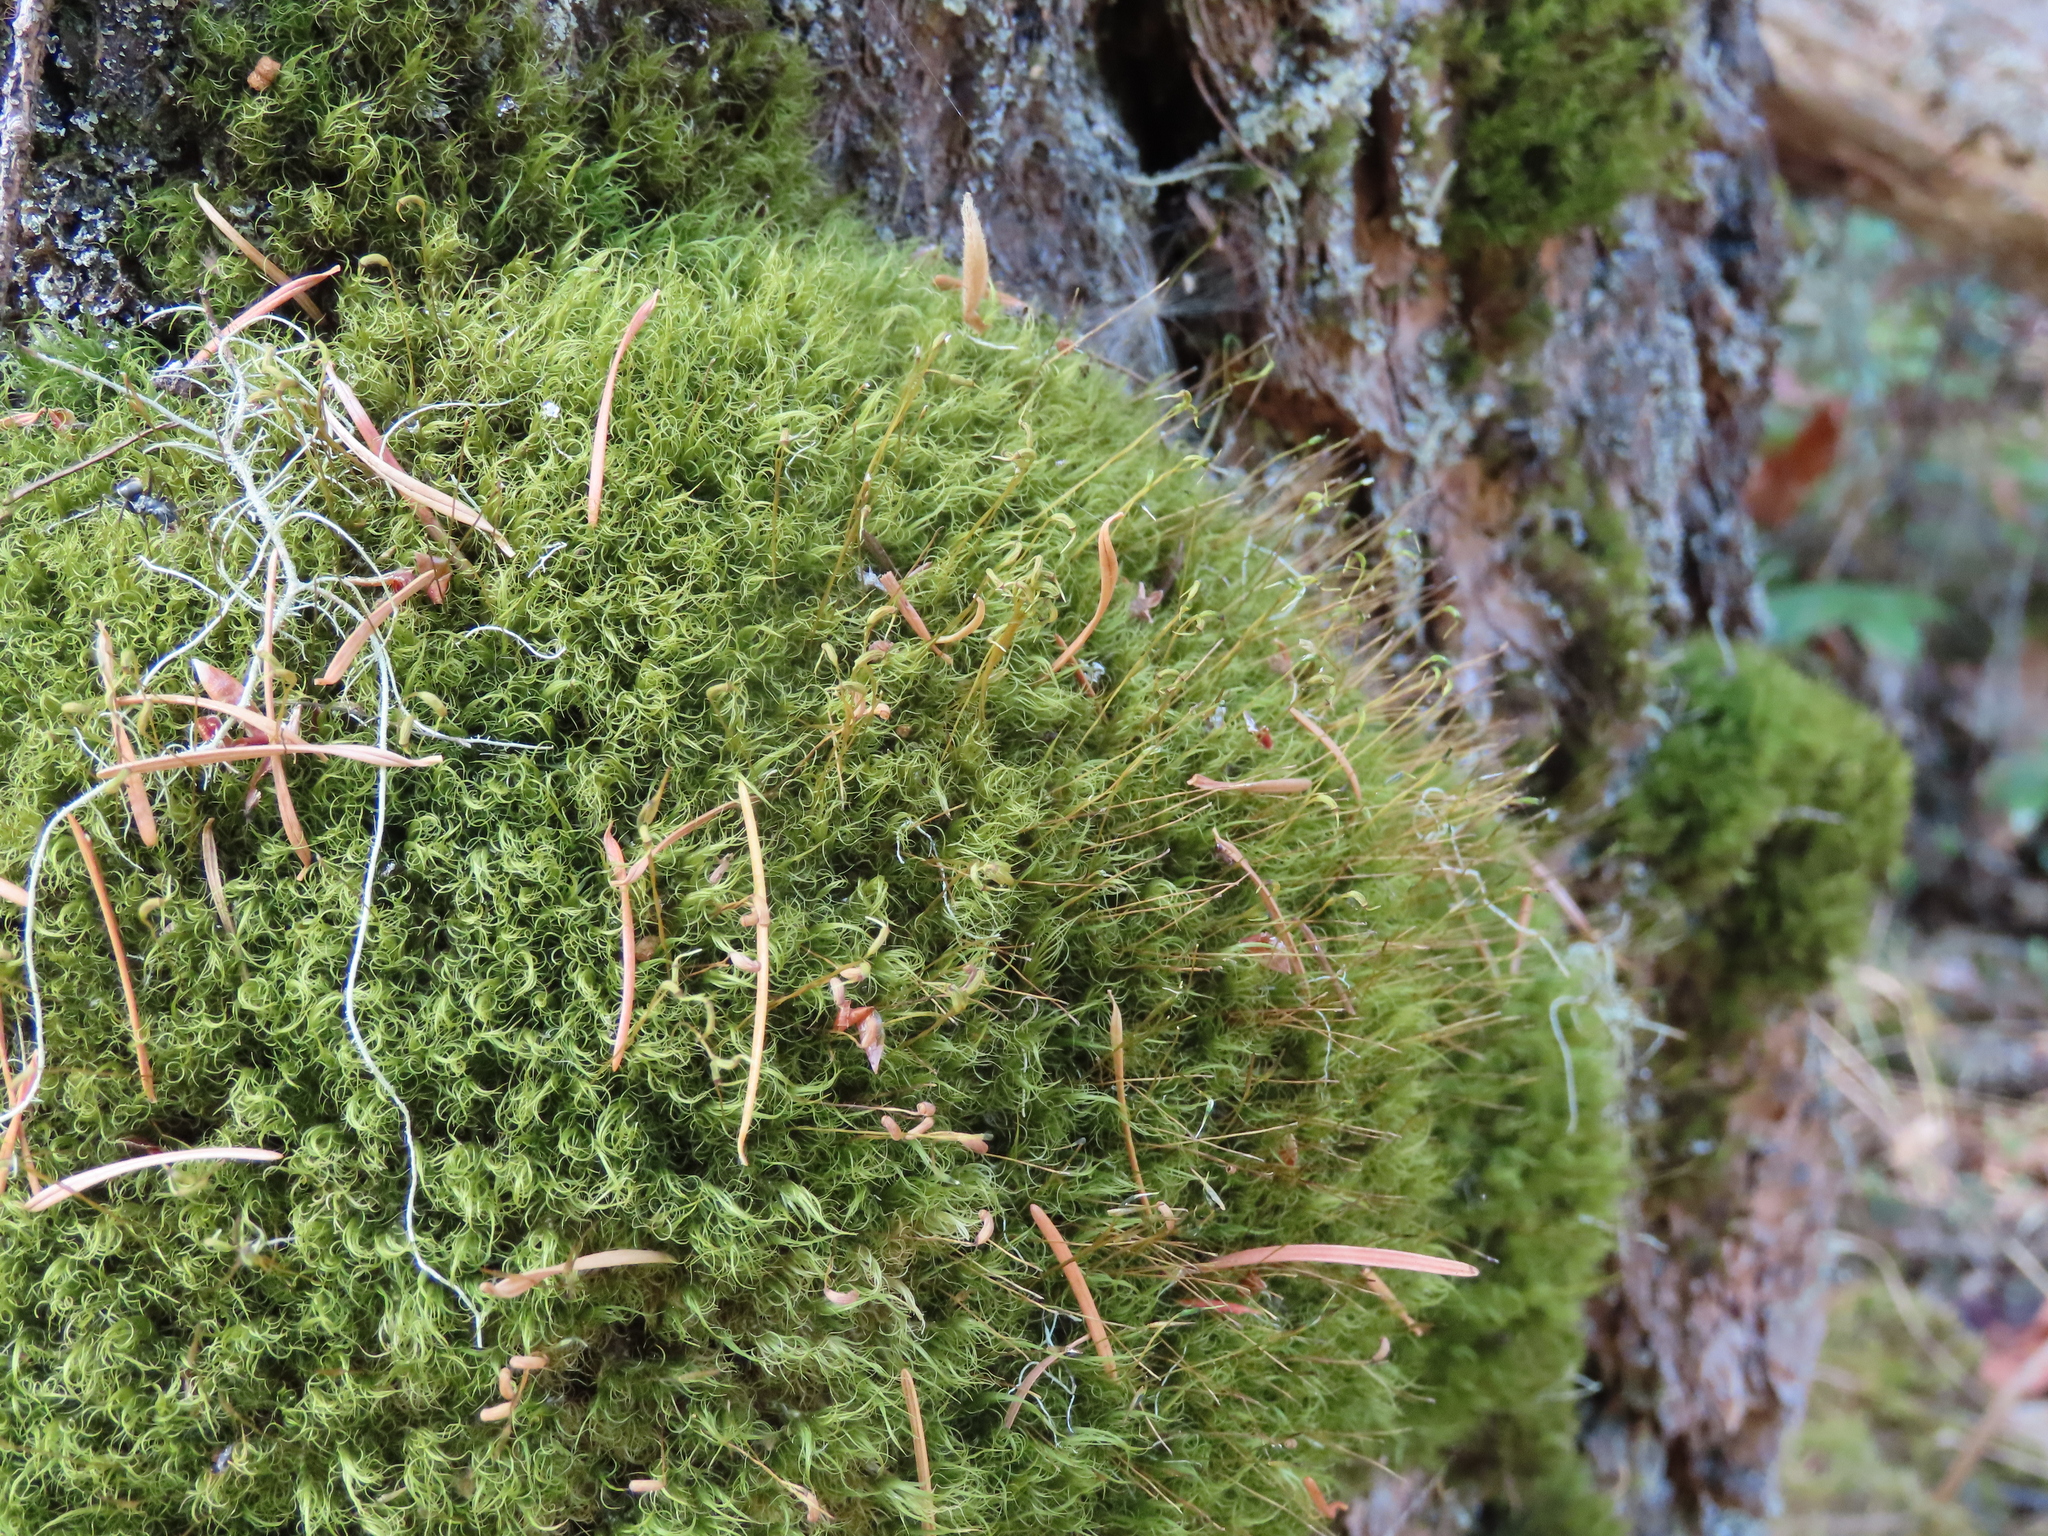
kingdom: Plantae
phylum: Bryophyta
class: Bryopsida
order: Dicranales
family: Dicranaceae
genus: Dicranum
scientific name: Dicranum fuscescens
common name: Curly heron's-bill moss
